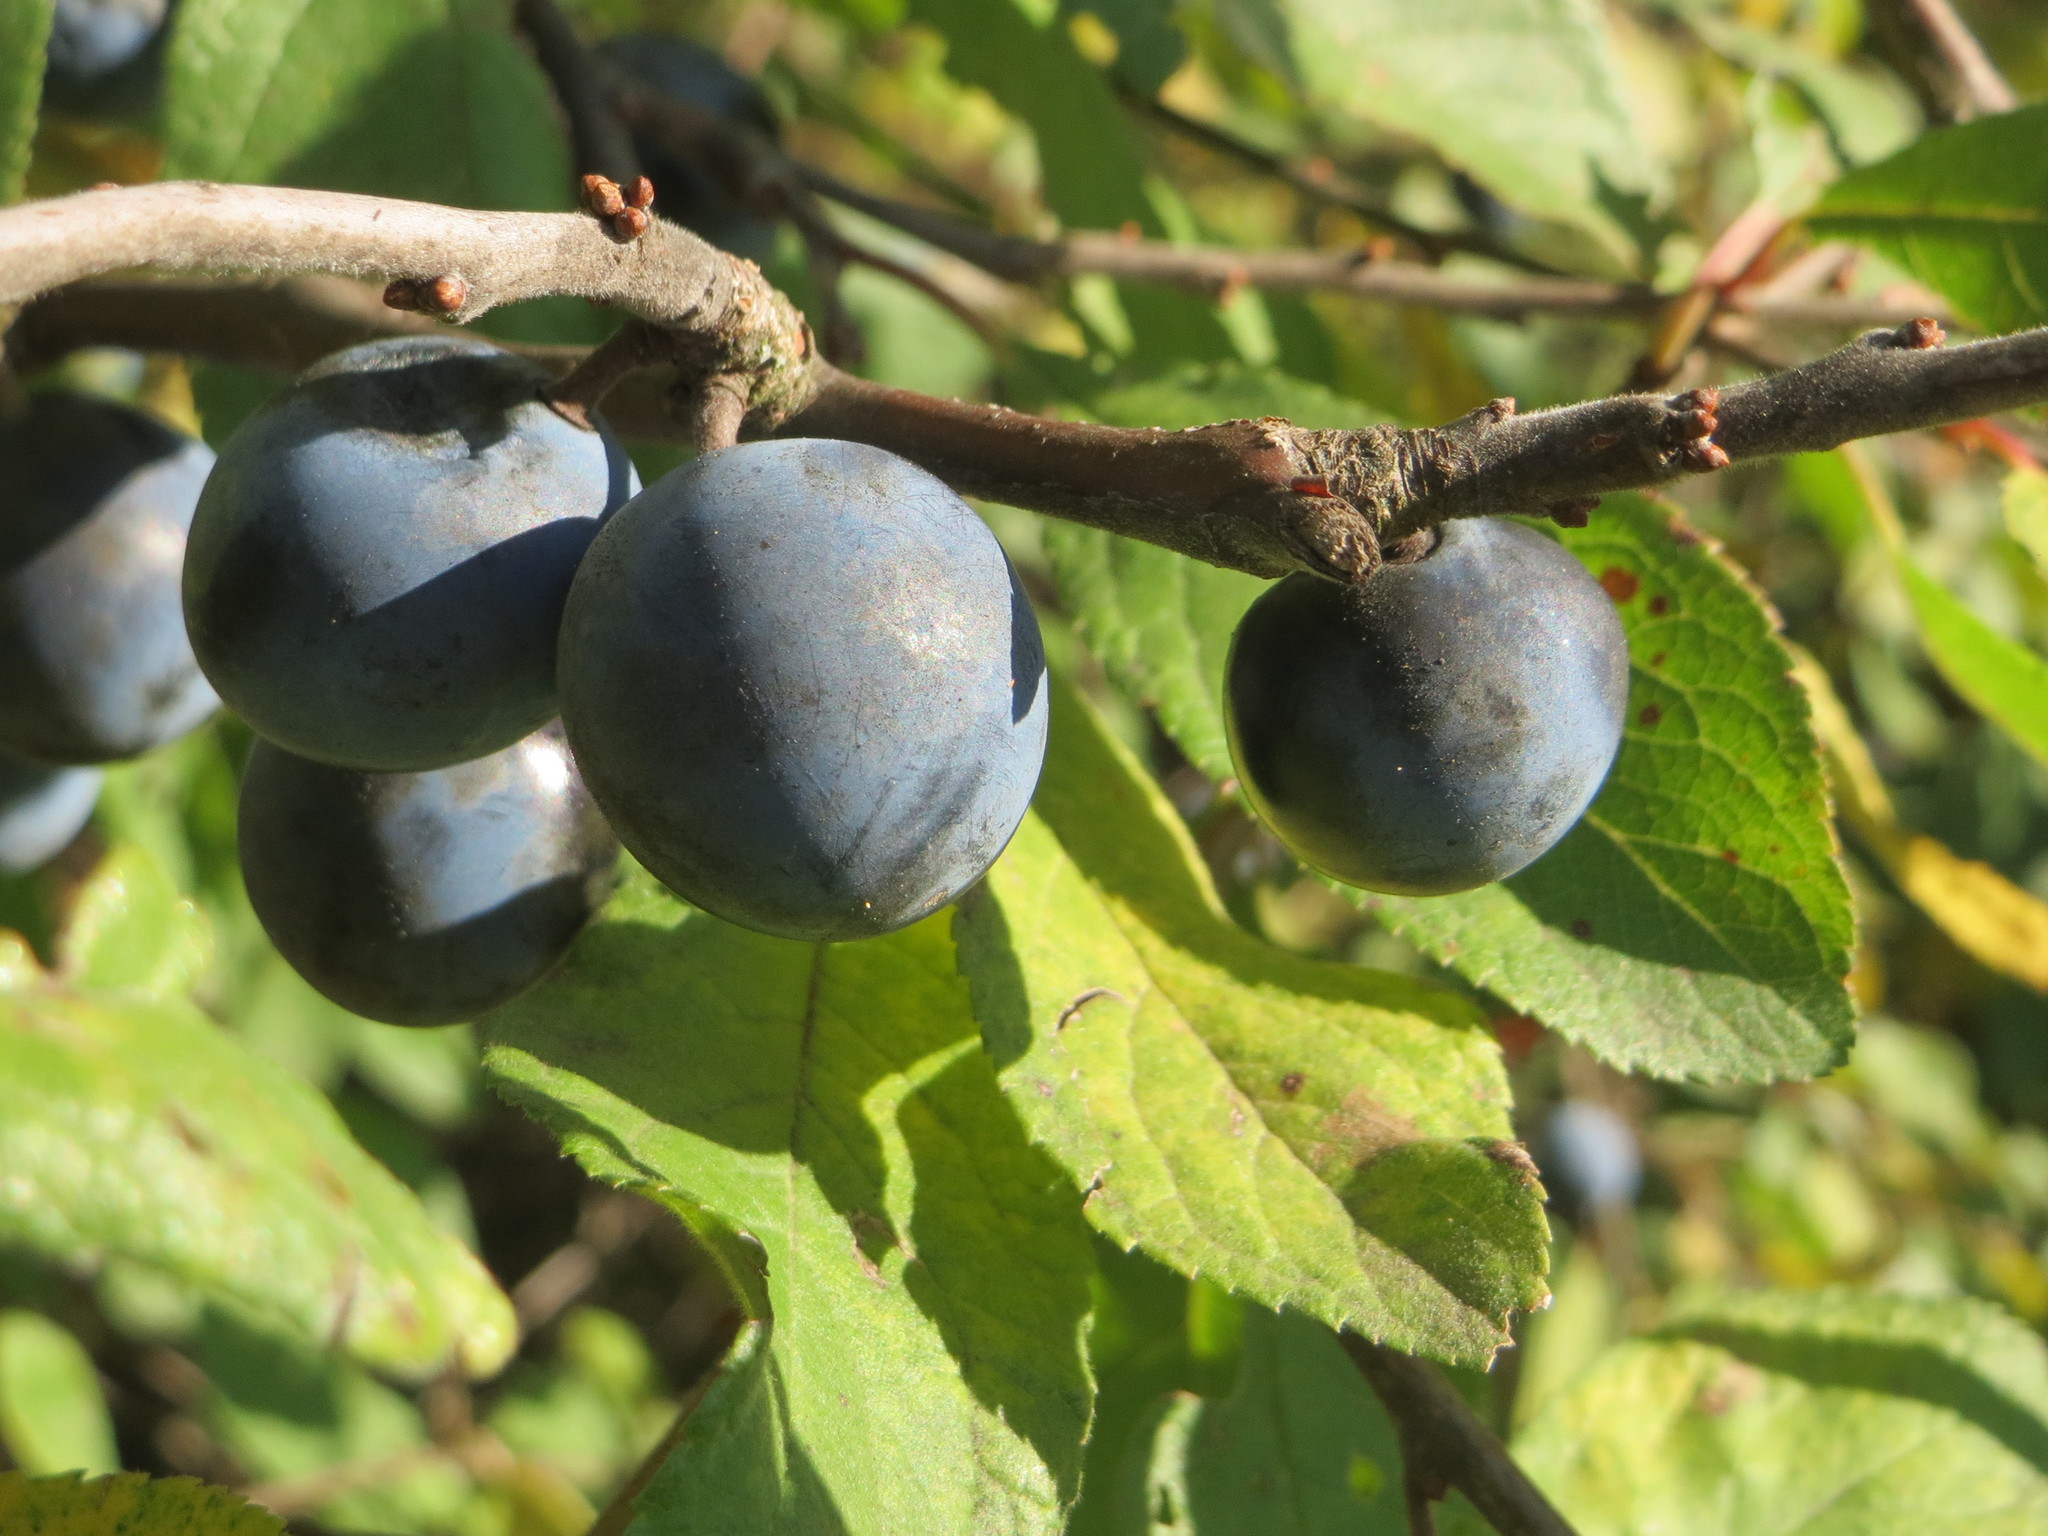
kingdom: Plantae
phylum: Tracheophyta
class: Magnoliopsida
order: Rosales
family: Rosaceae
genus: Prunus
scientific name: Prunus spinosa
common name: Blackthorn
